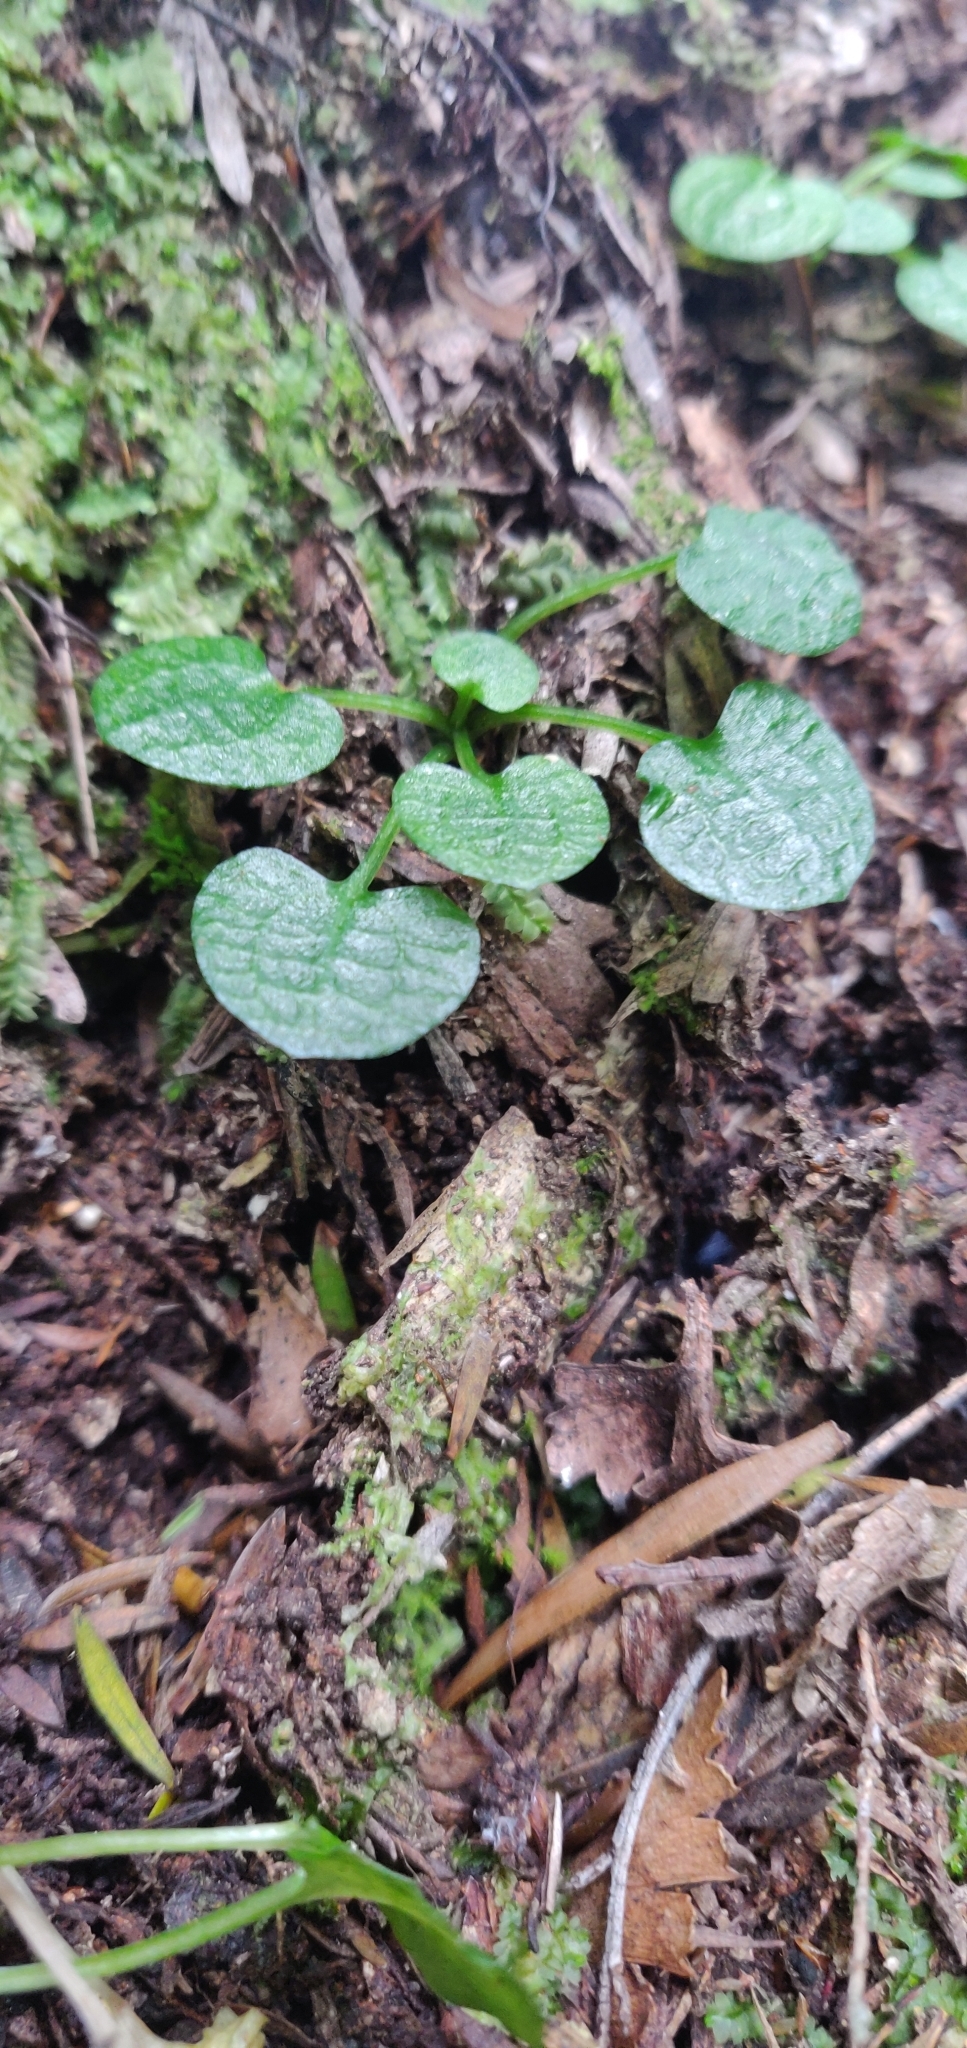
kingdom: Plantae
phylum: Tracheophyta
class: Liliopsida
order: Asparagales
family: Orchidaceae
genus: Pterostylis
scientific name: Pterostylis trullifolia
